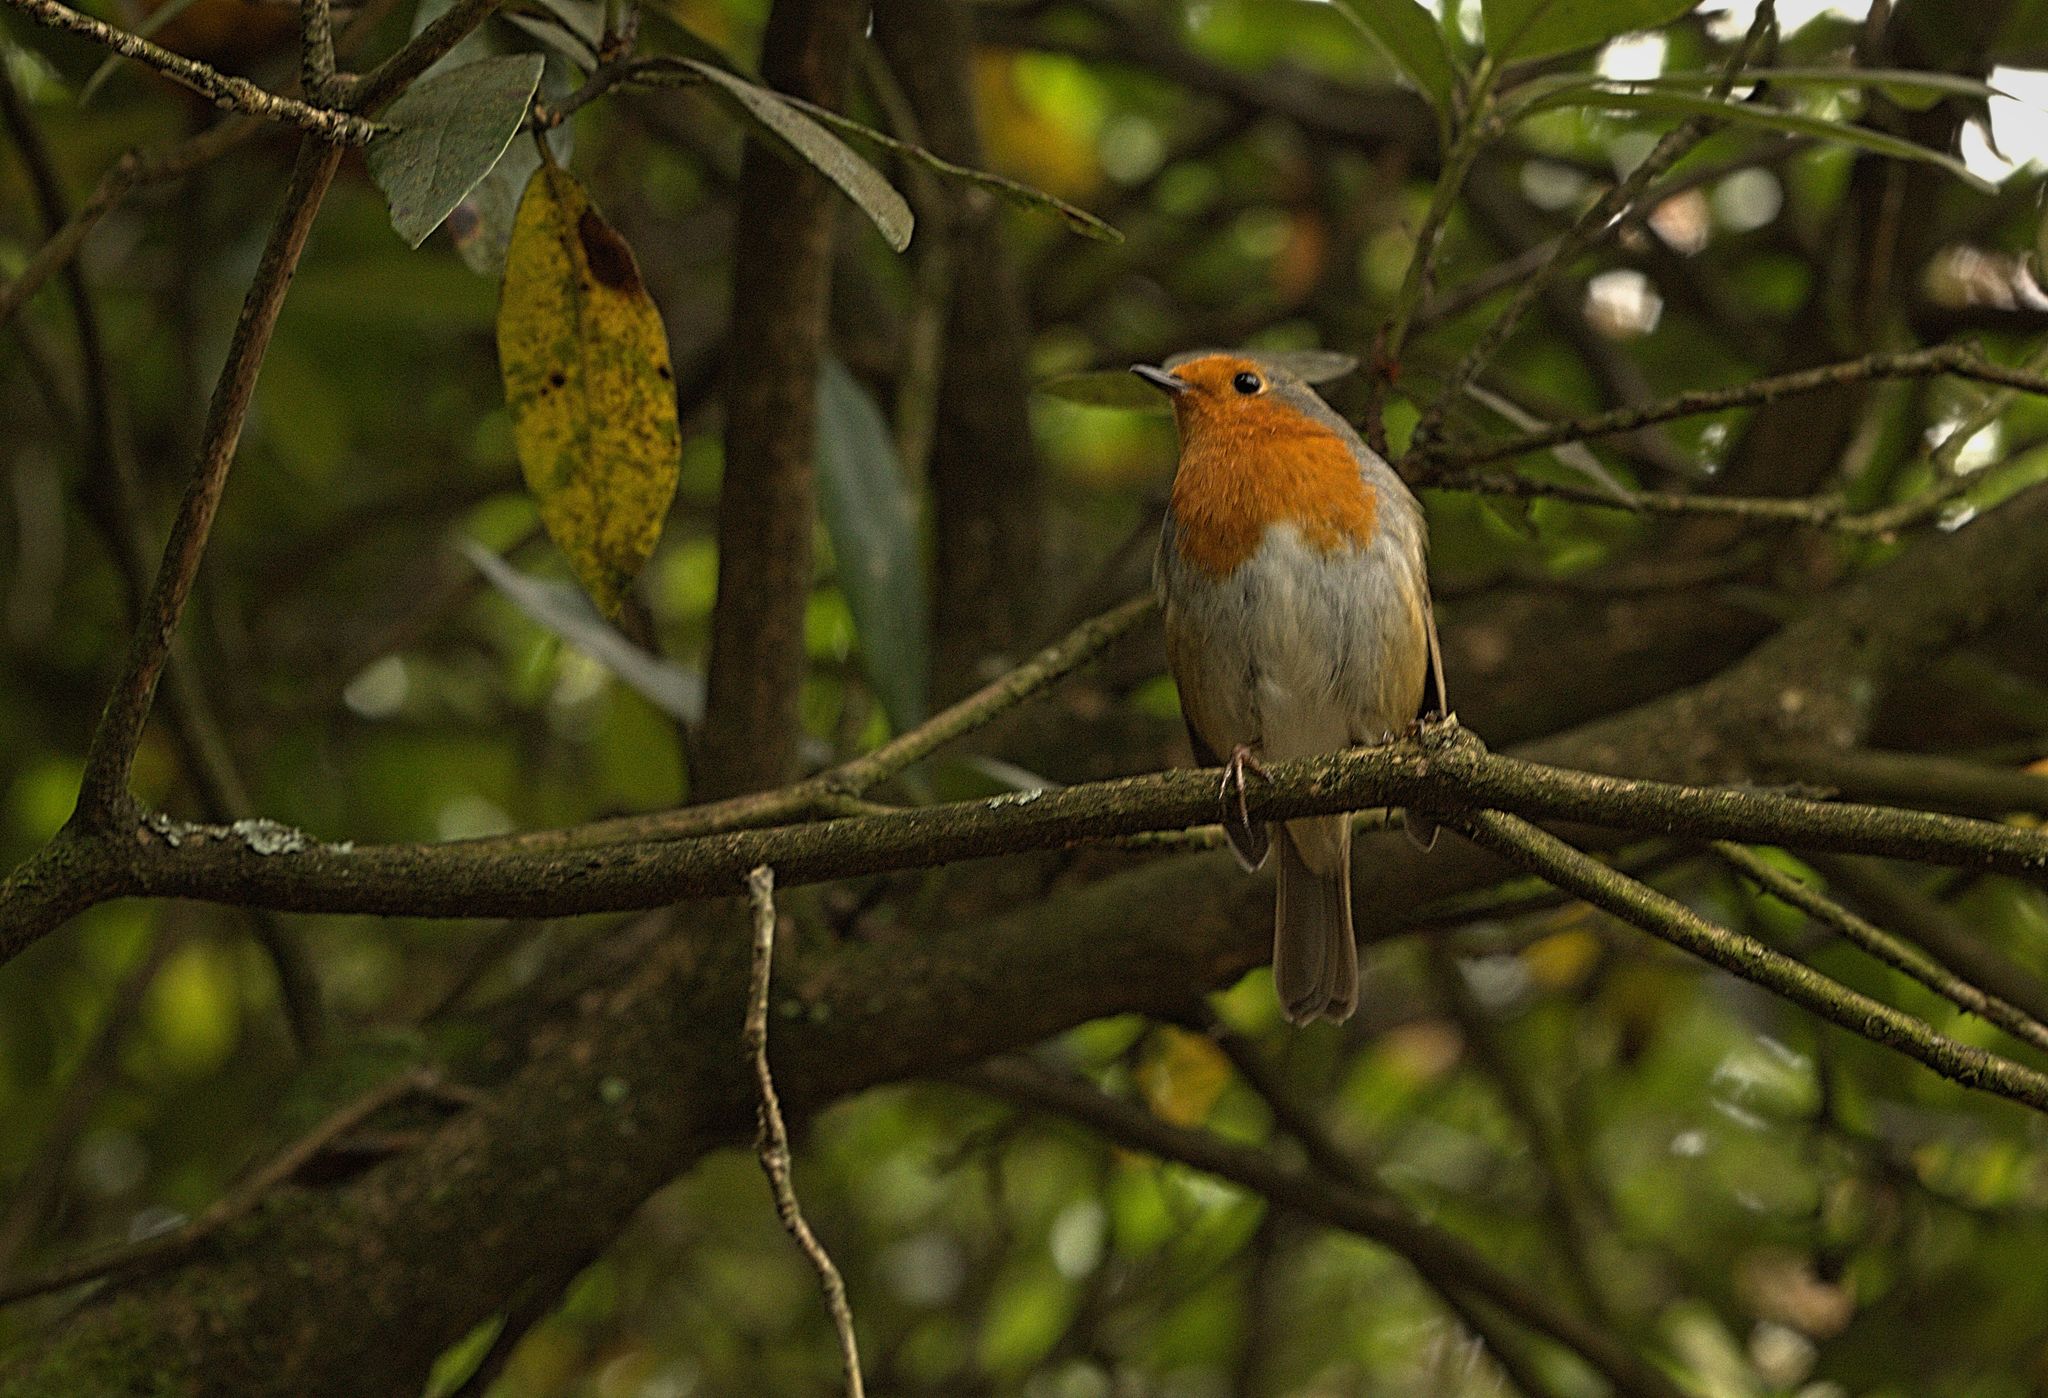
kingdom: Animalia
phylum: Chordata
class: Aves
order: Passeriformes
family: Muscicapidae
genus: Erithacus
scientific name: Erithacus rubecula
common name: European robin
